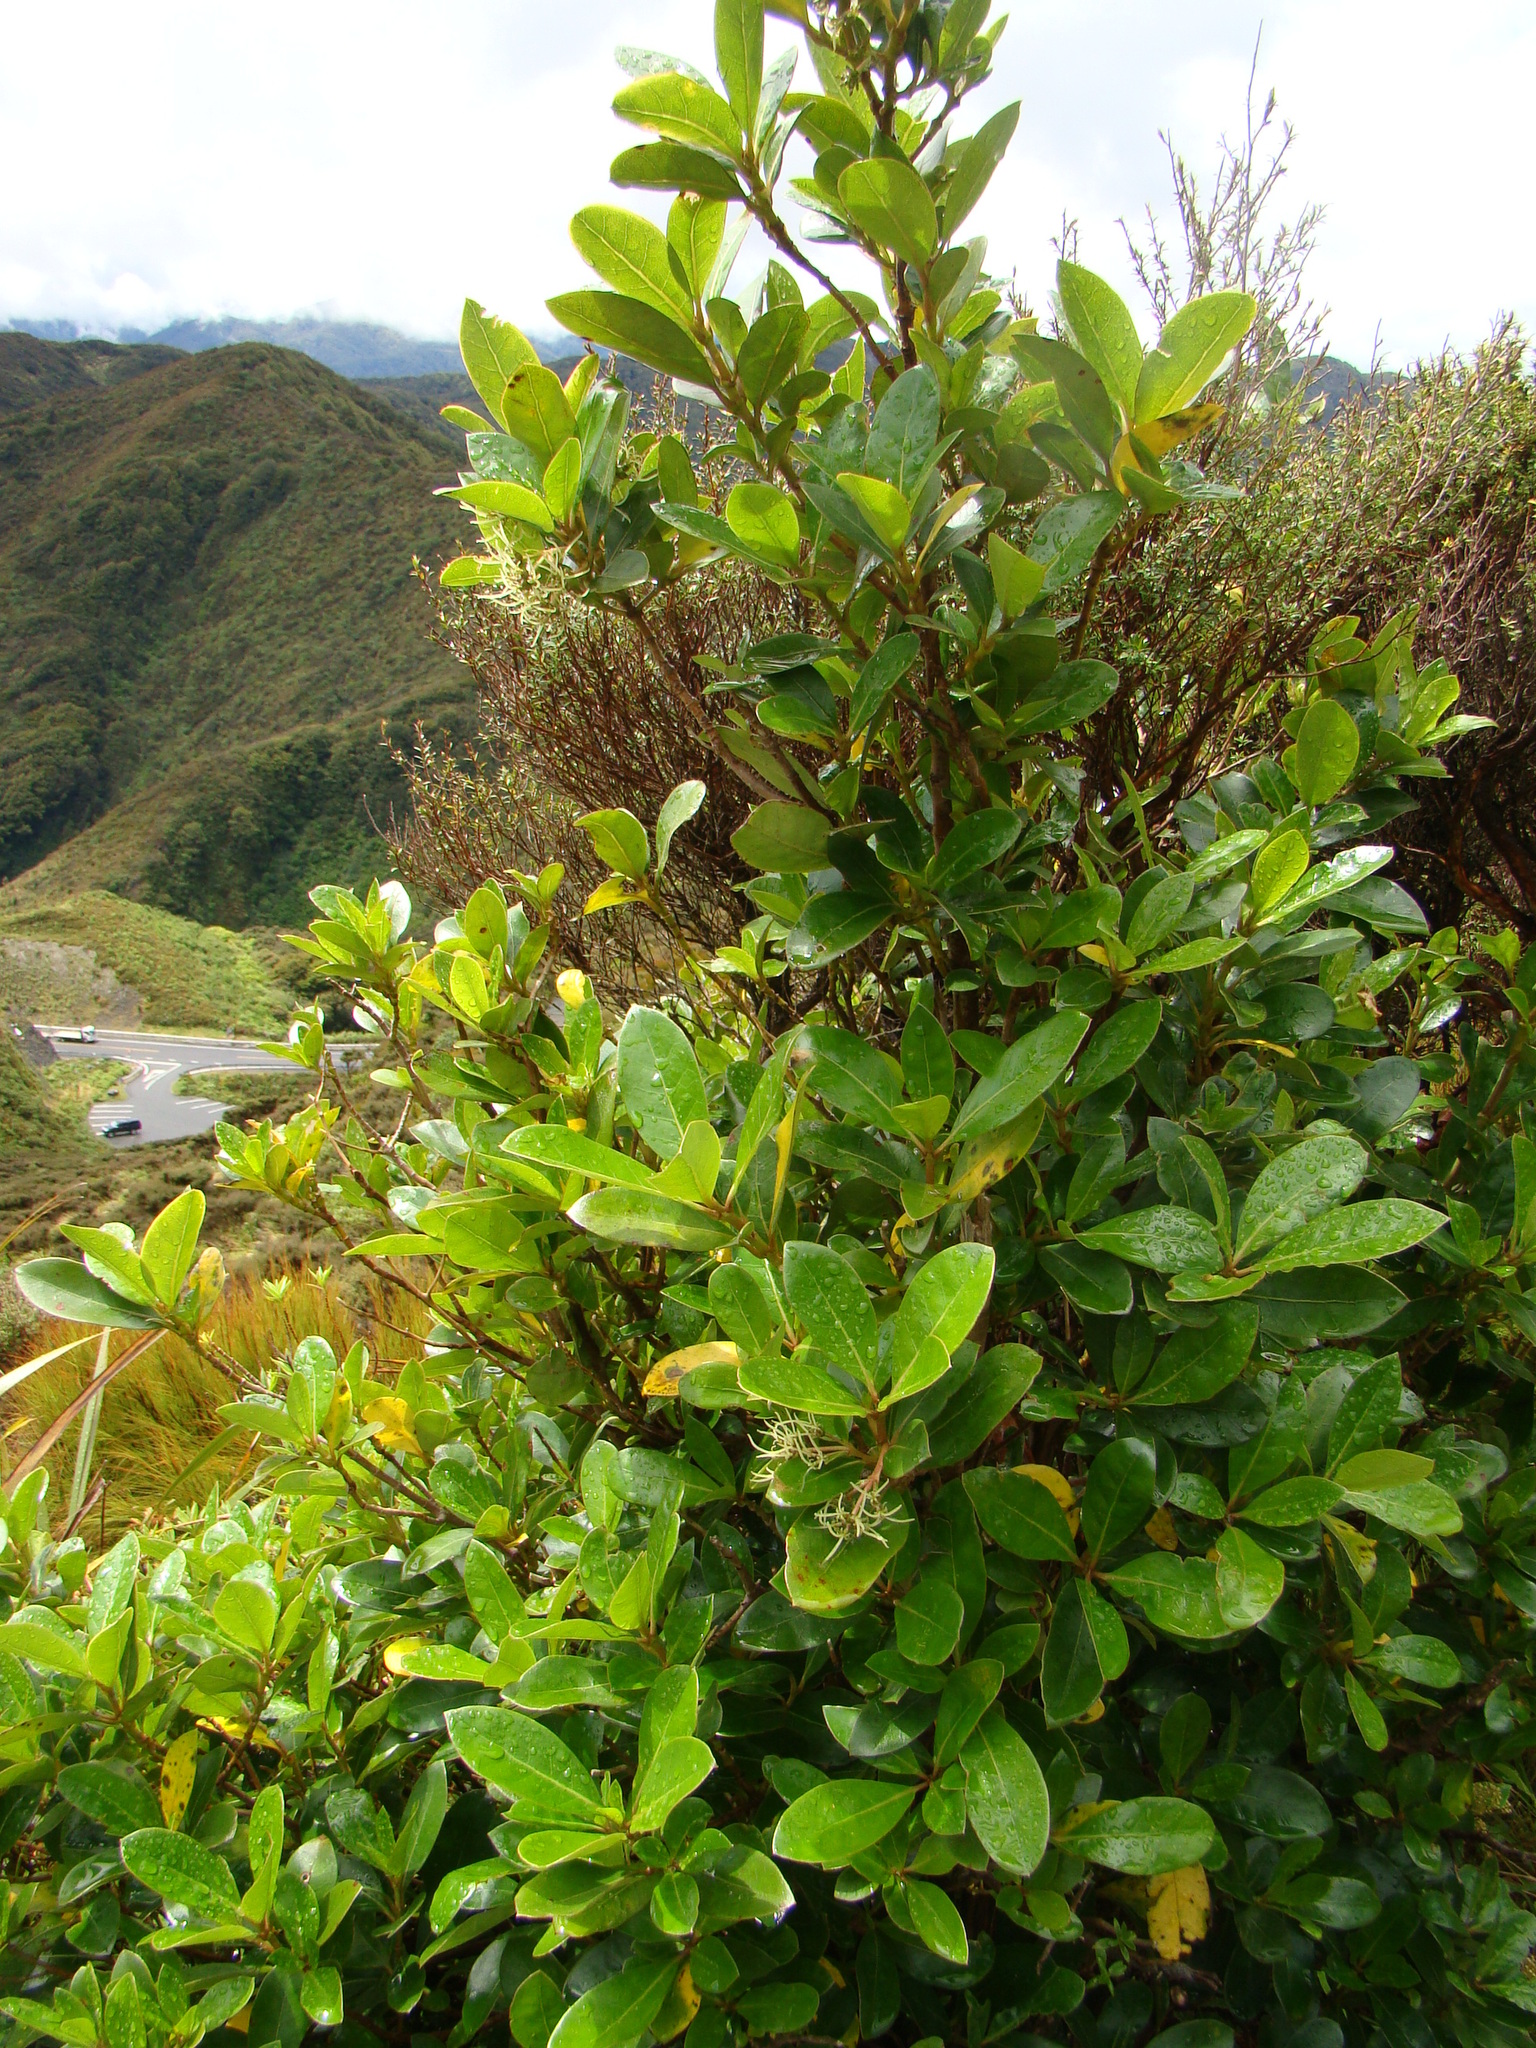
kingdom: Plantae
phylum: Tracheophyta
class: Magnoliopsida
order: Gentianales
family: Rubiaceae
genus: Coprosma
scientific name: Coprosma lucida
